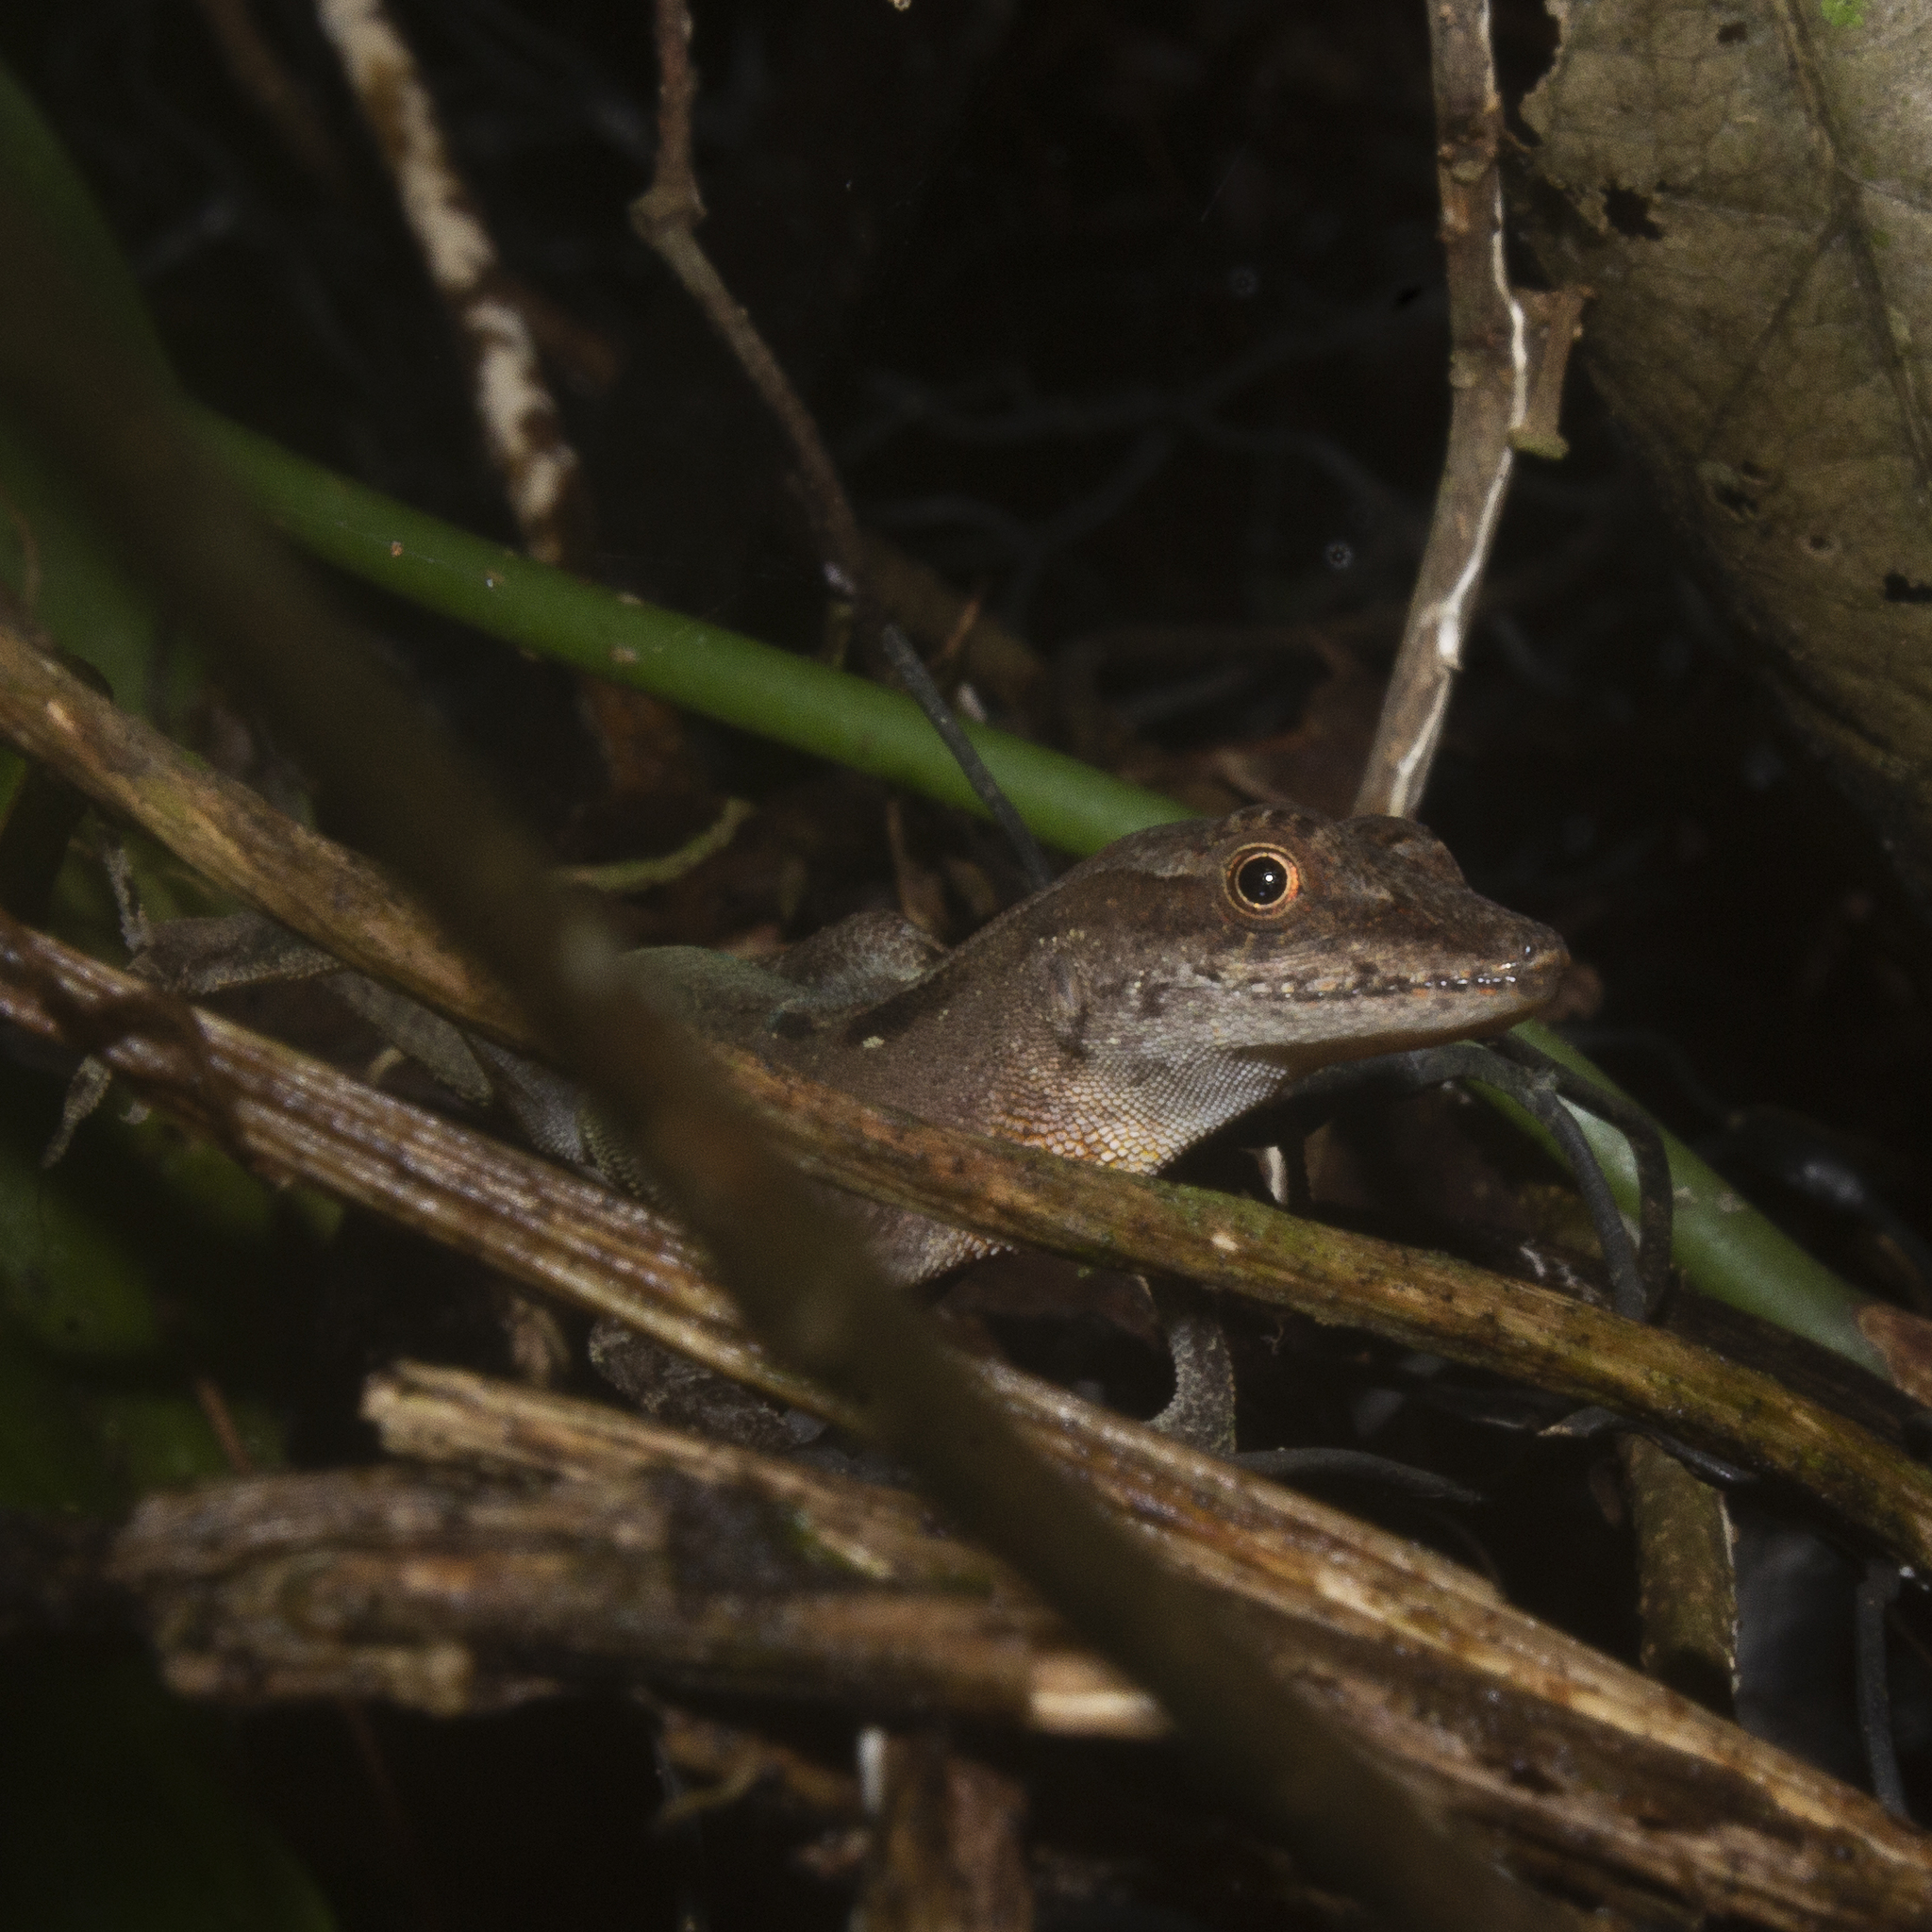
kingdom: Animalia
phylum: Chordata
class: Squamata
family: Dactyloidae
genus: Anolis
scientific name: Anolis gaigei
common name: Gaige’s anole
